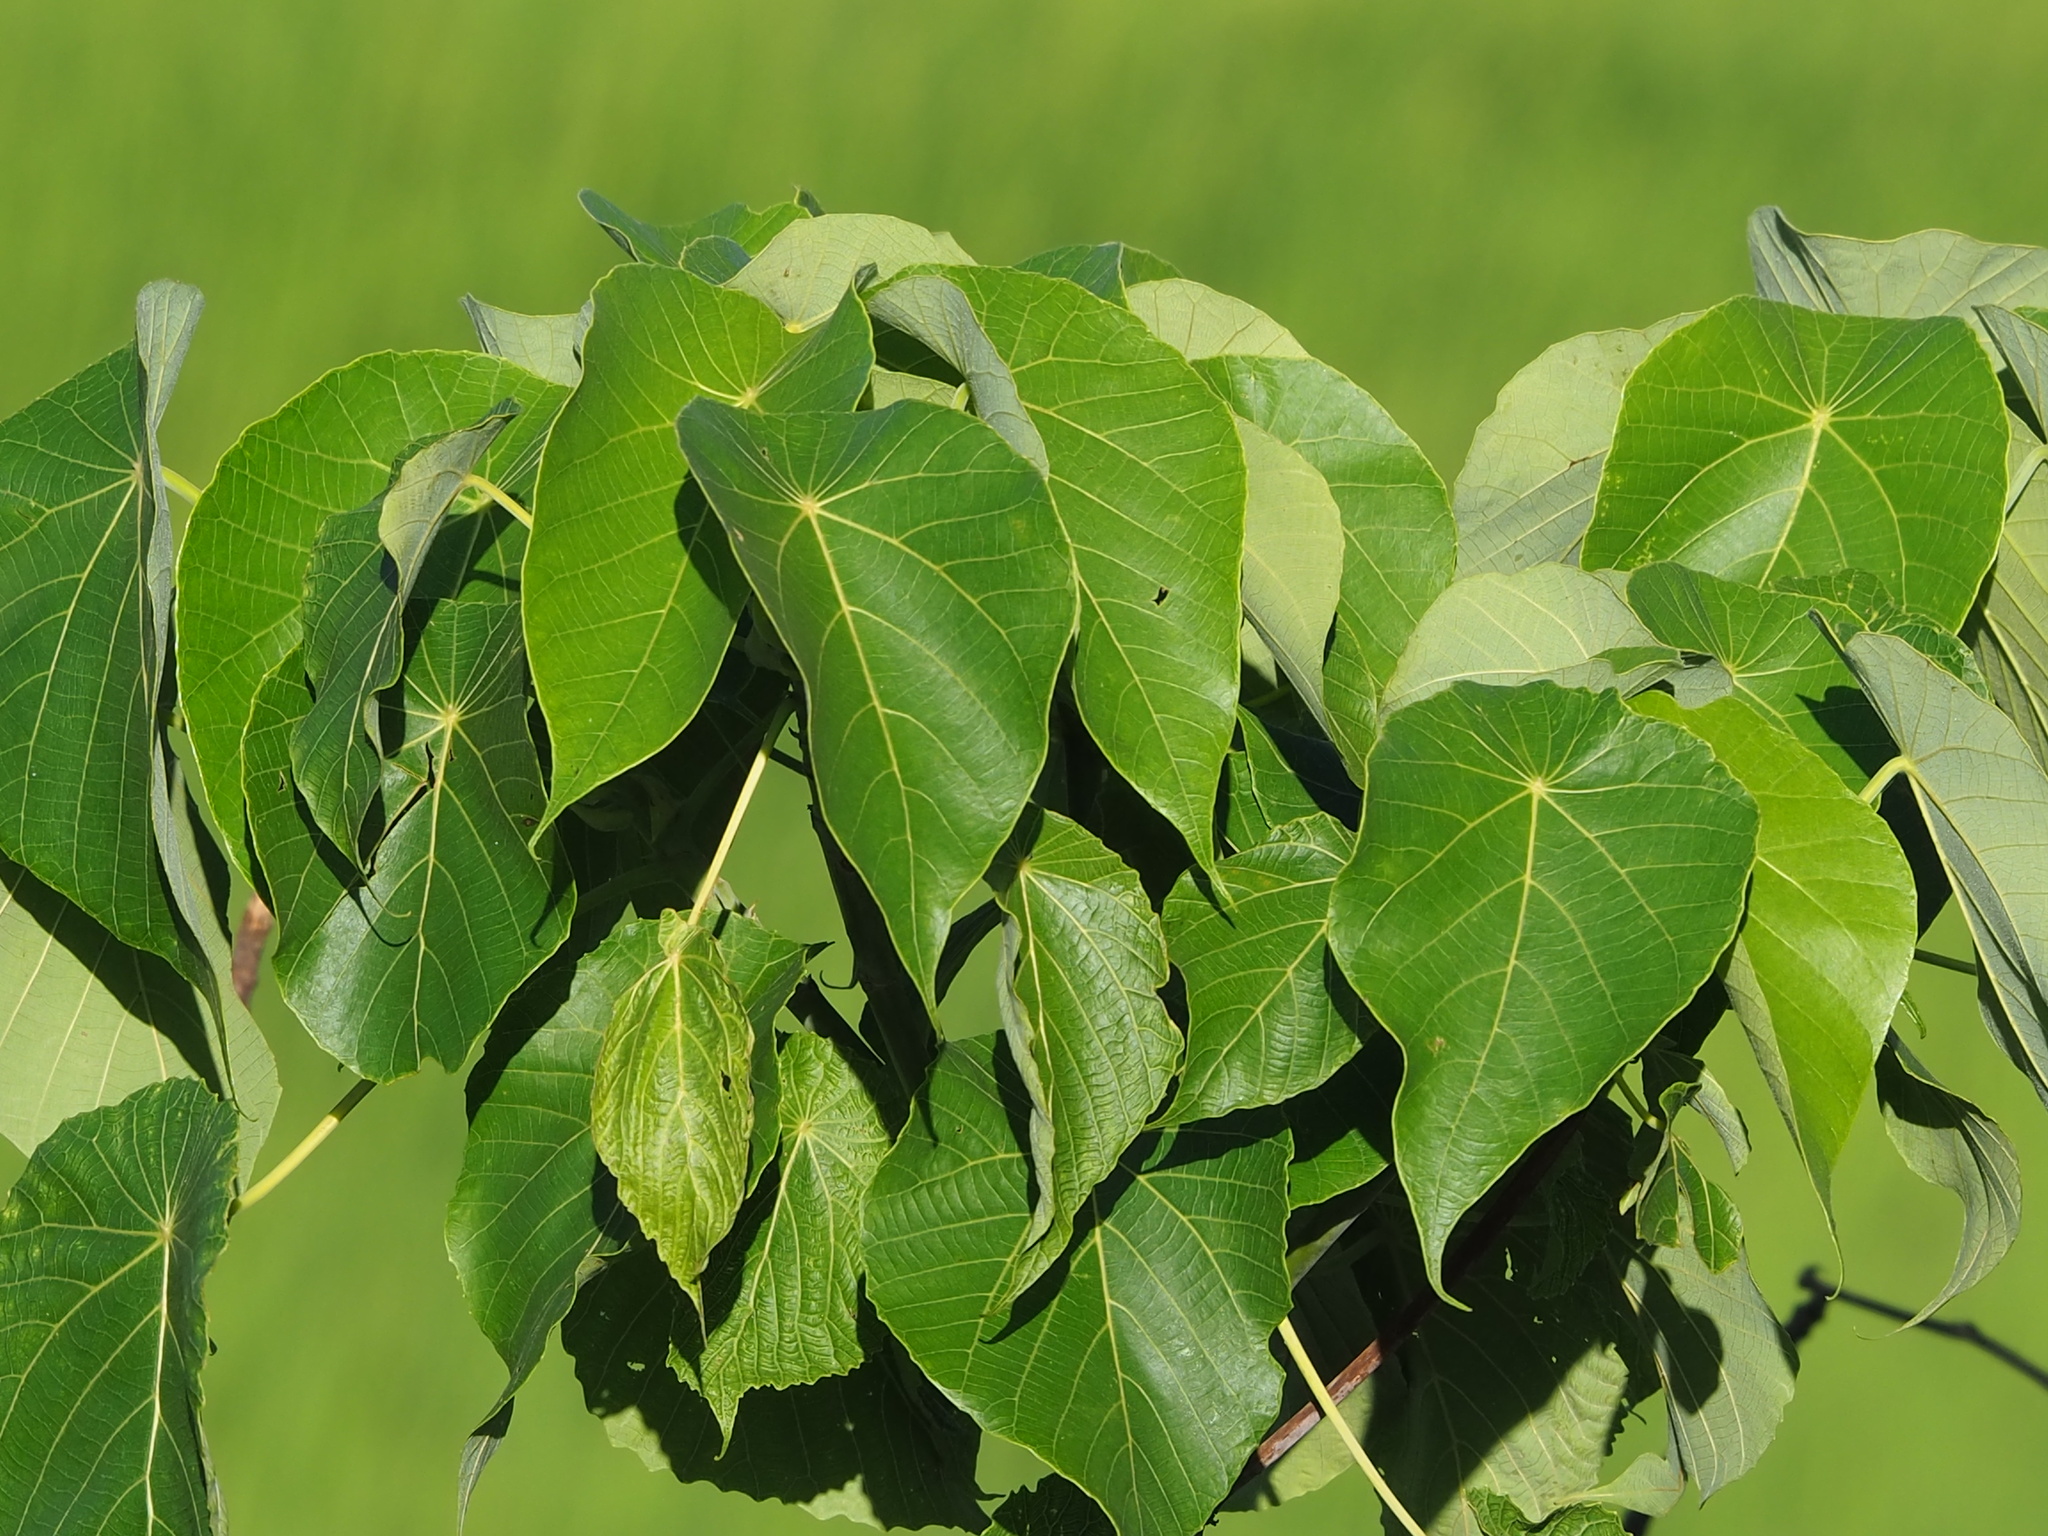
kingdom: Plantae
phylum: Tracheophyta
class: Magnoliopsida
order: Malpighiales
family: Euphorbiaceae
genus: Macaranga
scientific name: Macaranga tanarius
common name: Parasol leaf tree
